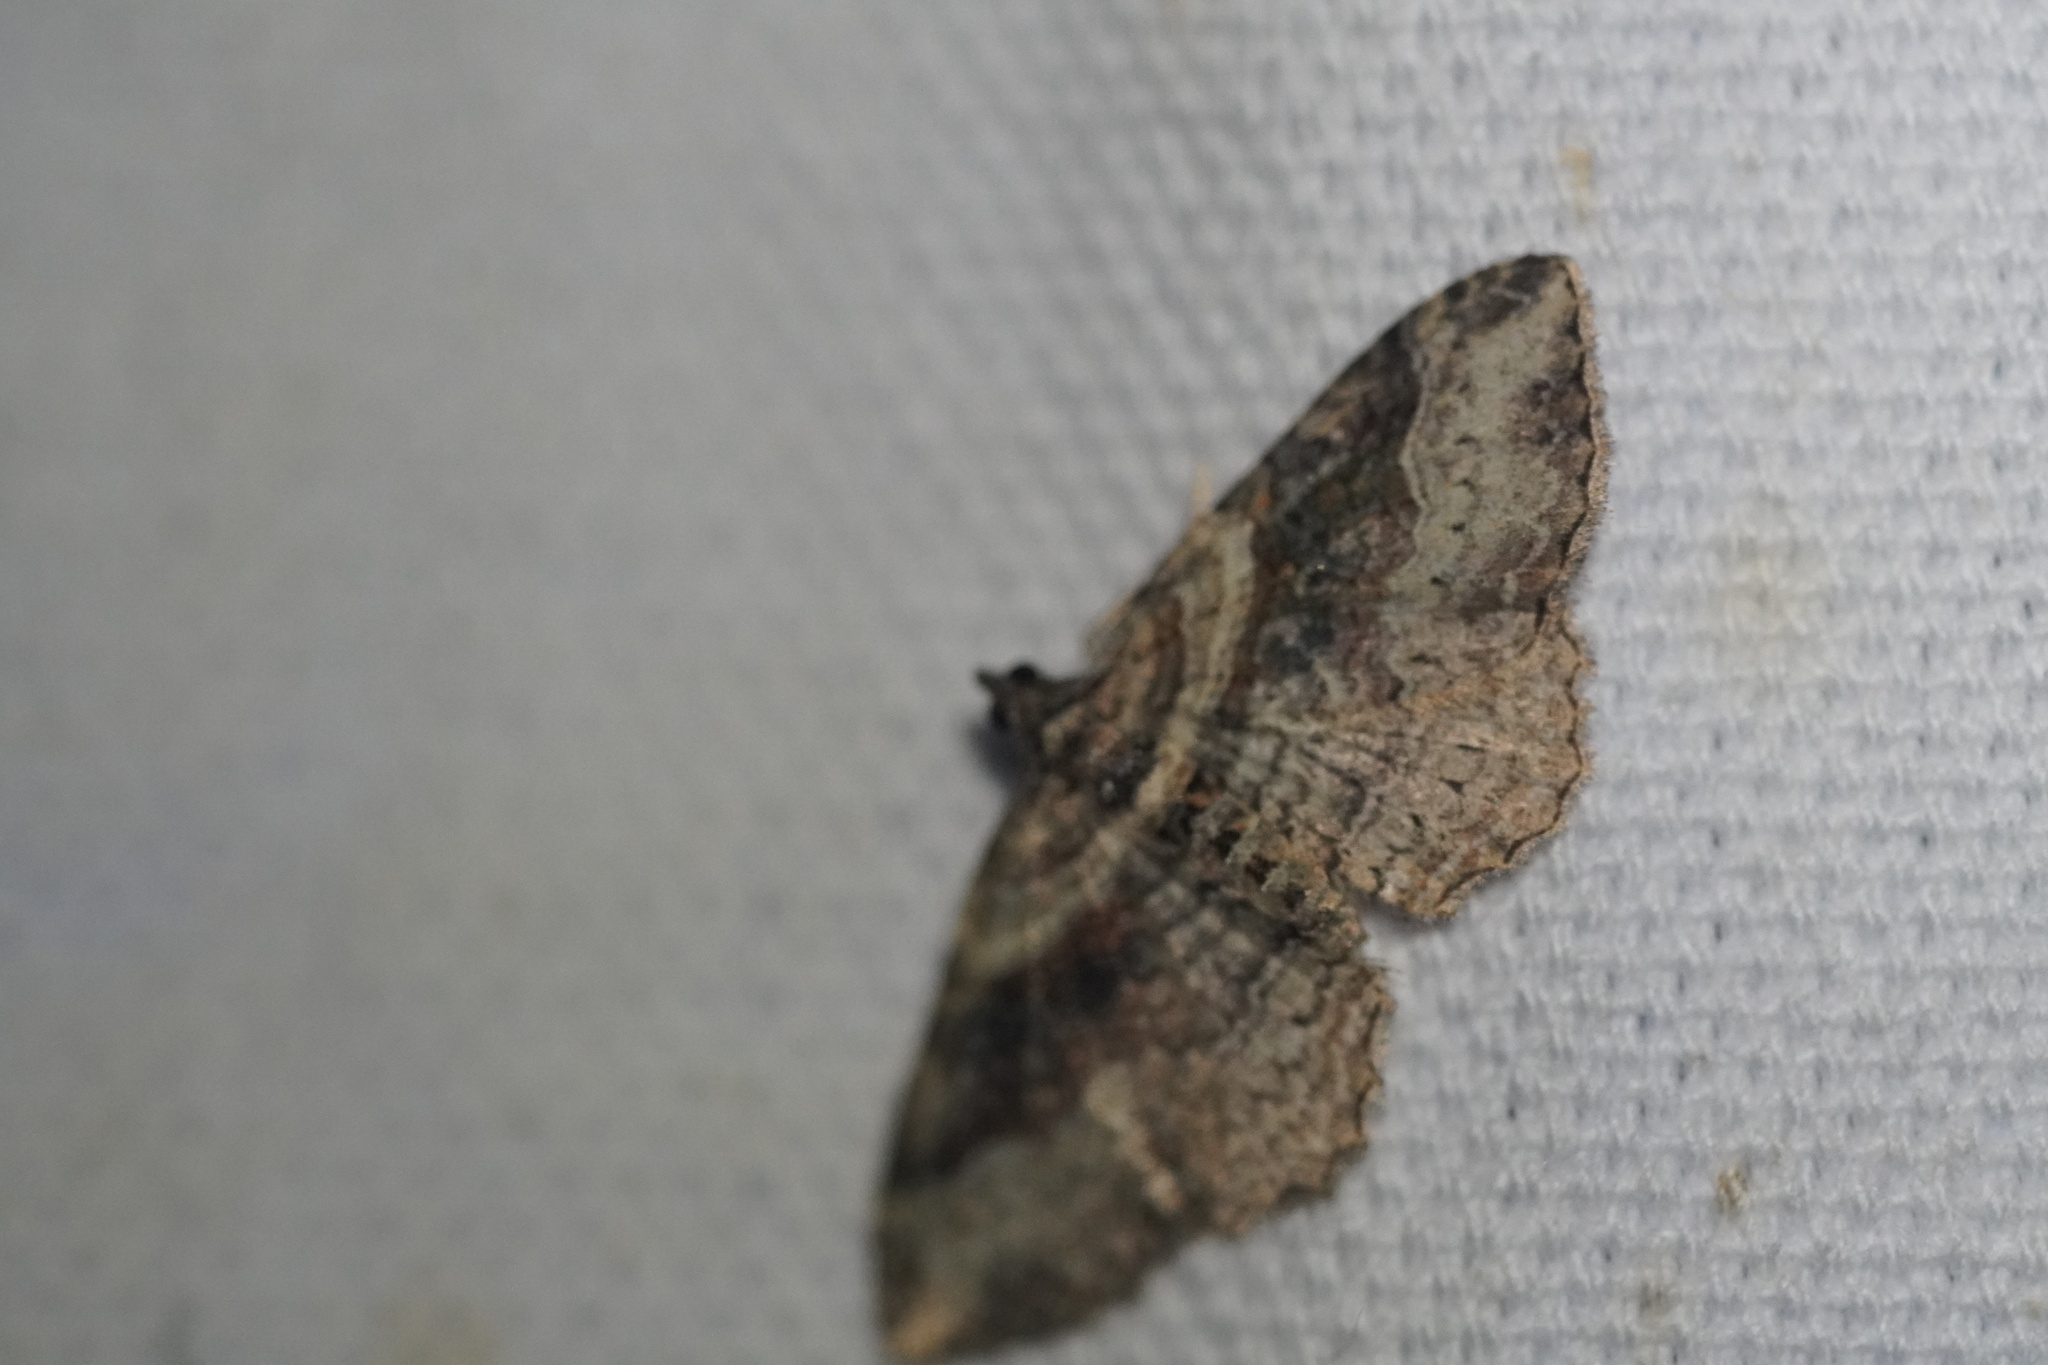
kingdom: Animalia
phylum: Arthropoda
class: Insecta
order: Lepidoptera
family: Geometridae
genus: Costaconvexa
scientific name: Costaconvexa centrostrigaria
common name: Bent-line carpet
